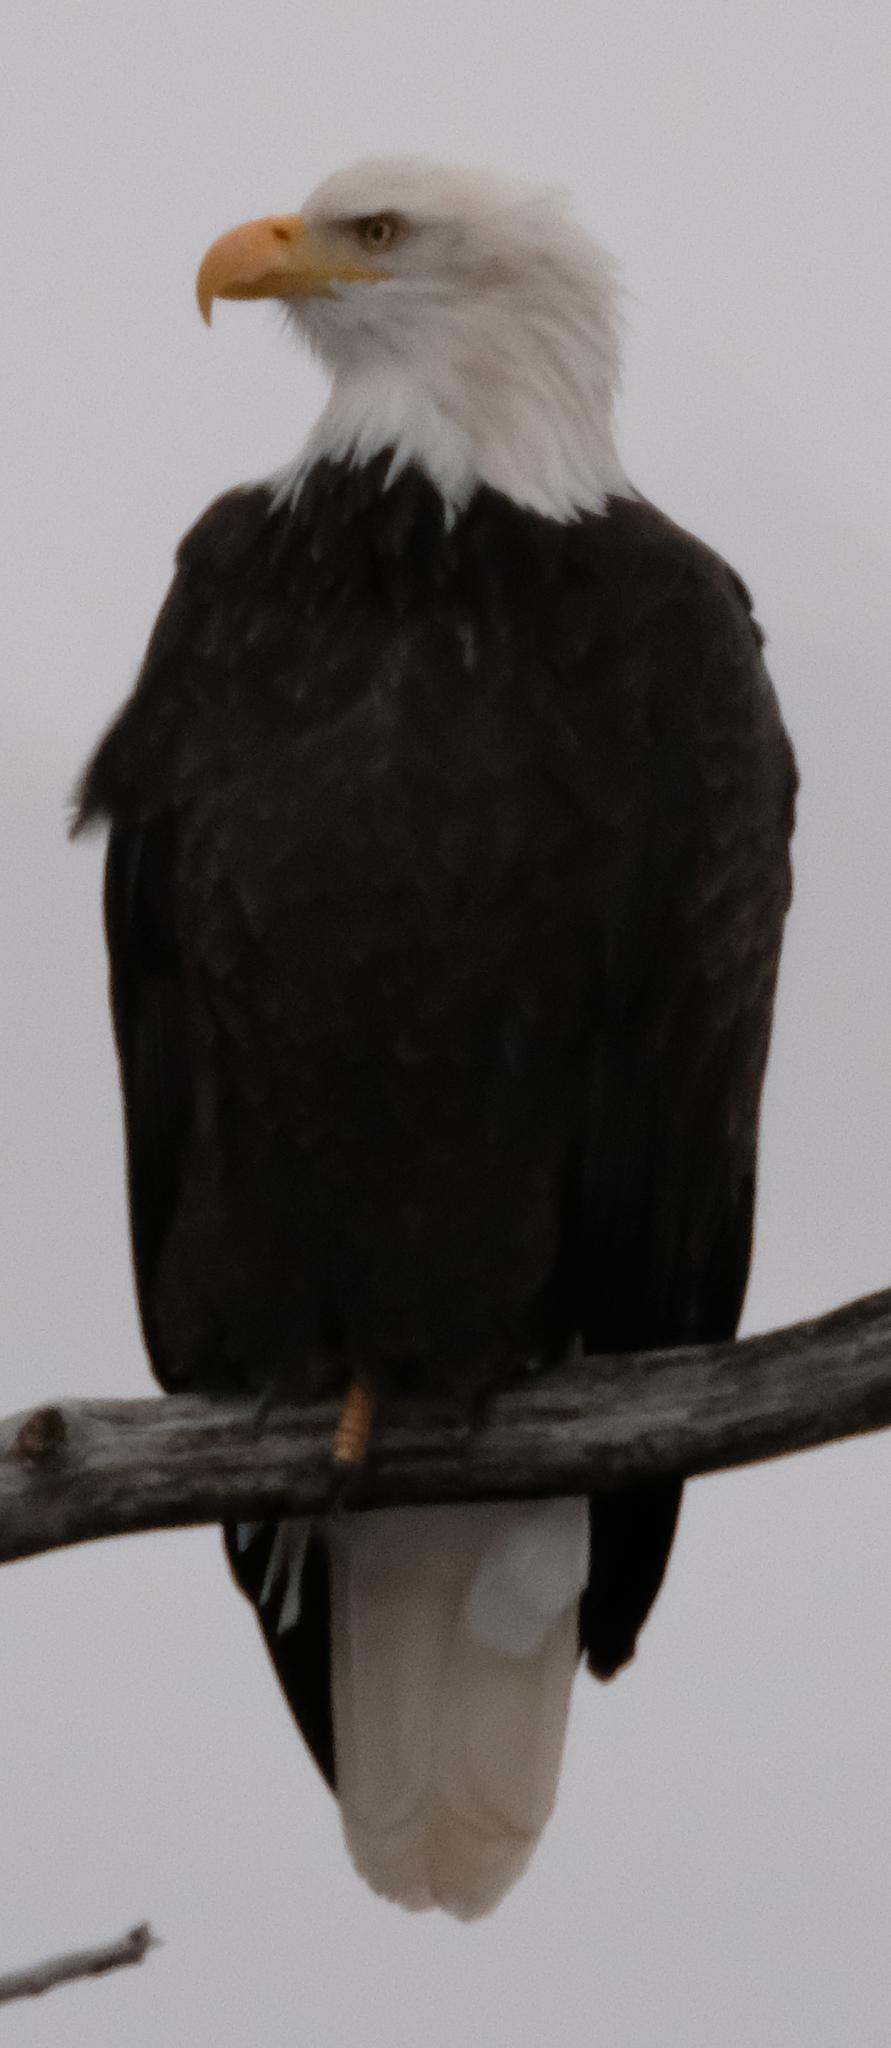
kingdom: Animalia
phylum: Chordata
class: Aves
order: Accipitriformes
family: Accipitridae
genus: Haliaeetus
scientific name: Haliaeetus leucocephalus
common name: Bald eagle
